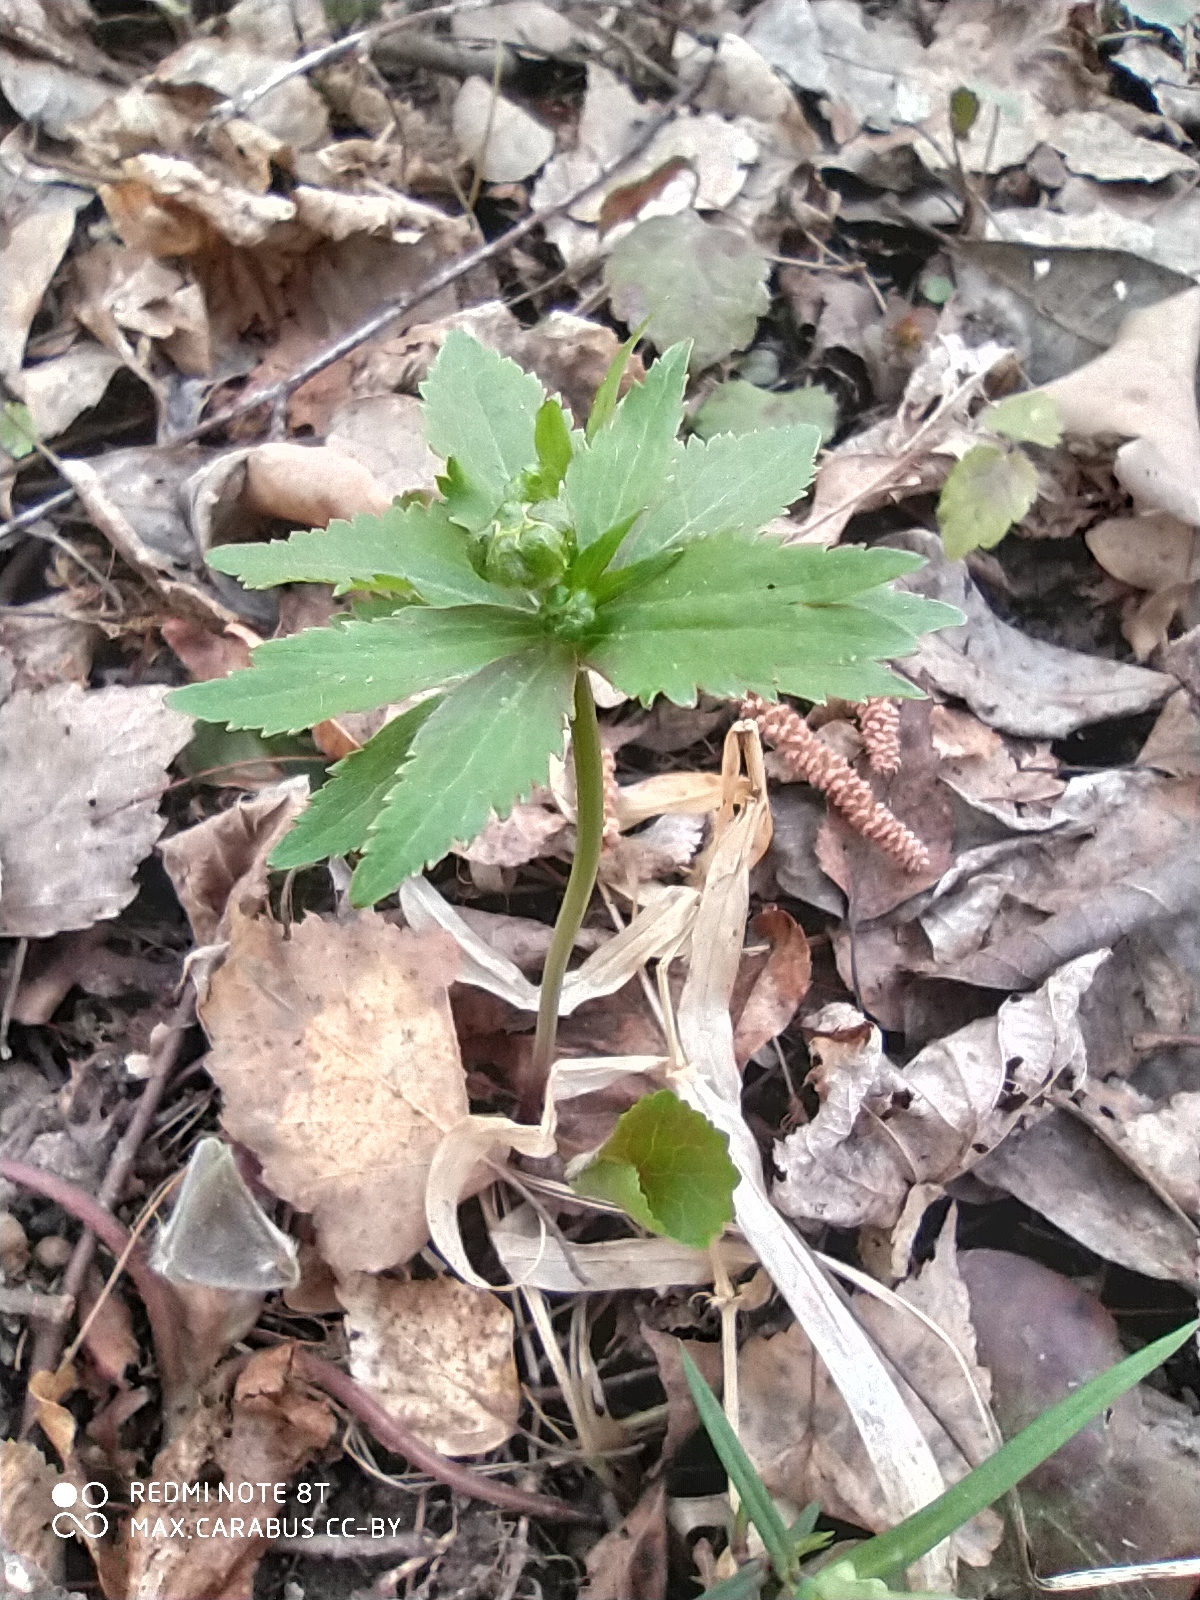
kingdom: Plantae
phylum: Tracheophyta
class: Magnoliopsida
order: Ranunculales
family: Ranunculaceae
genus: Ranunculus
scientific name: Ranunculus cassubicus
